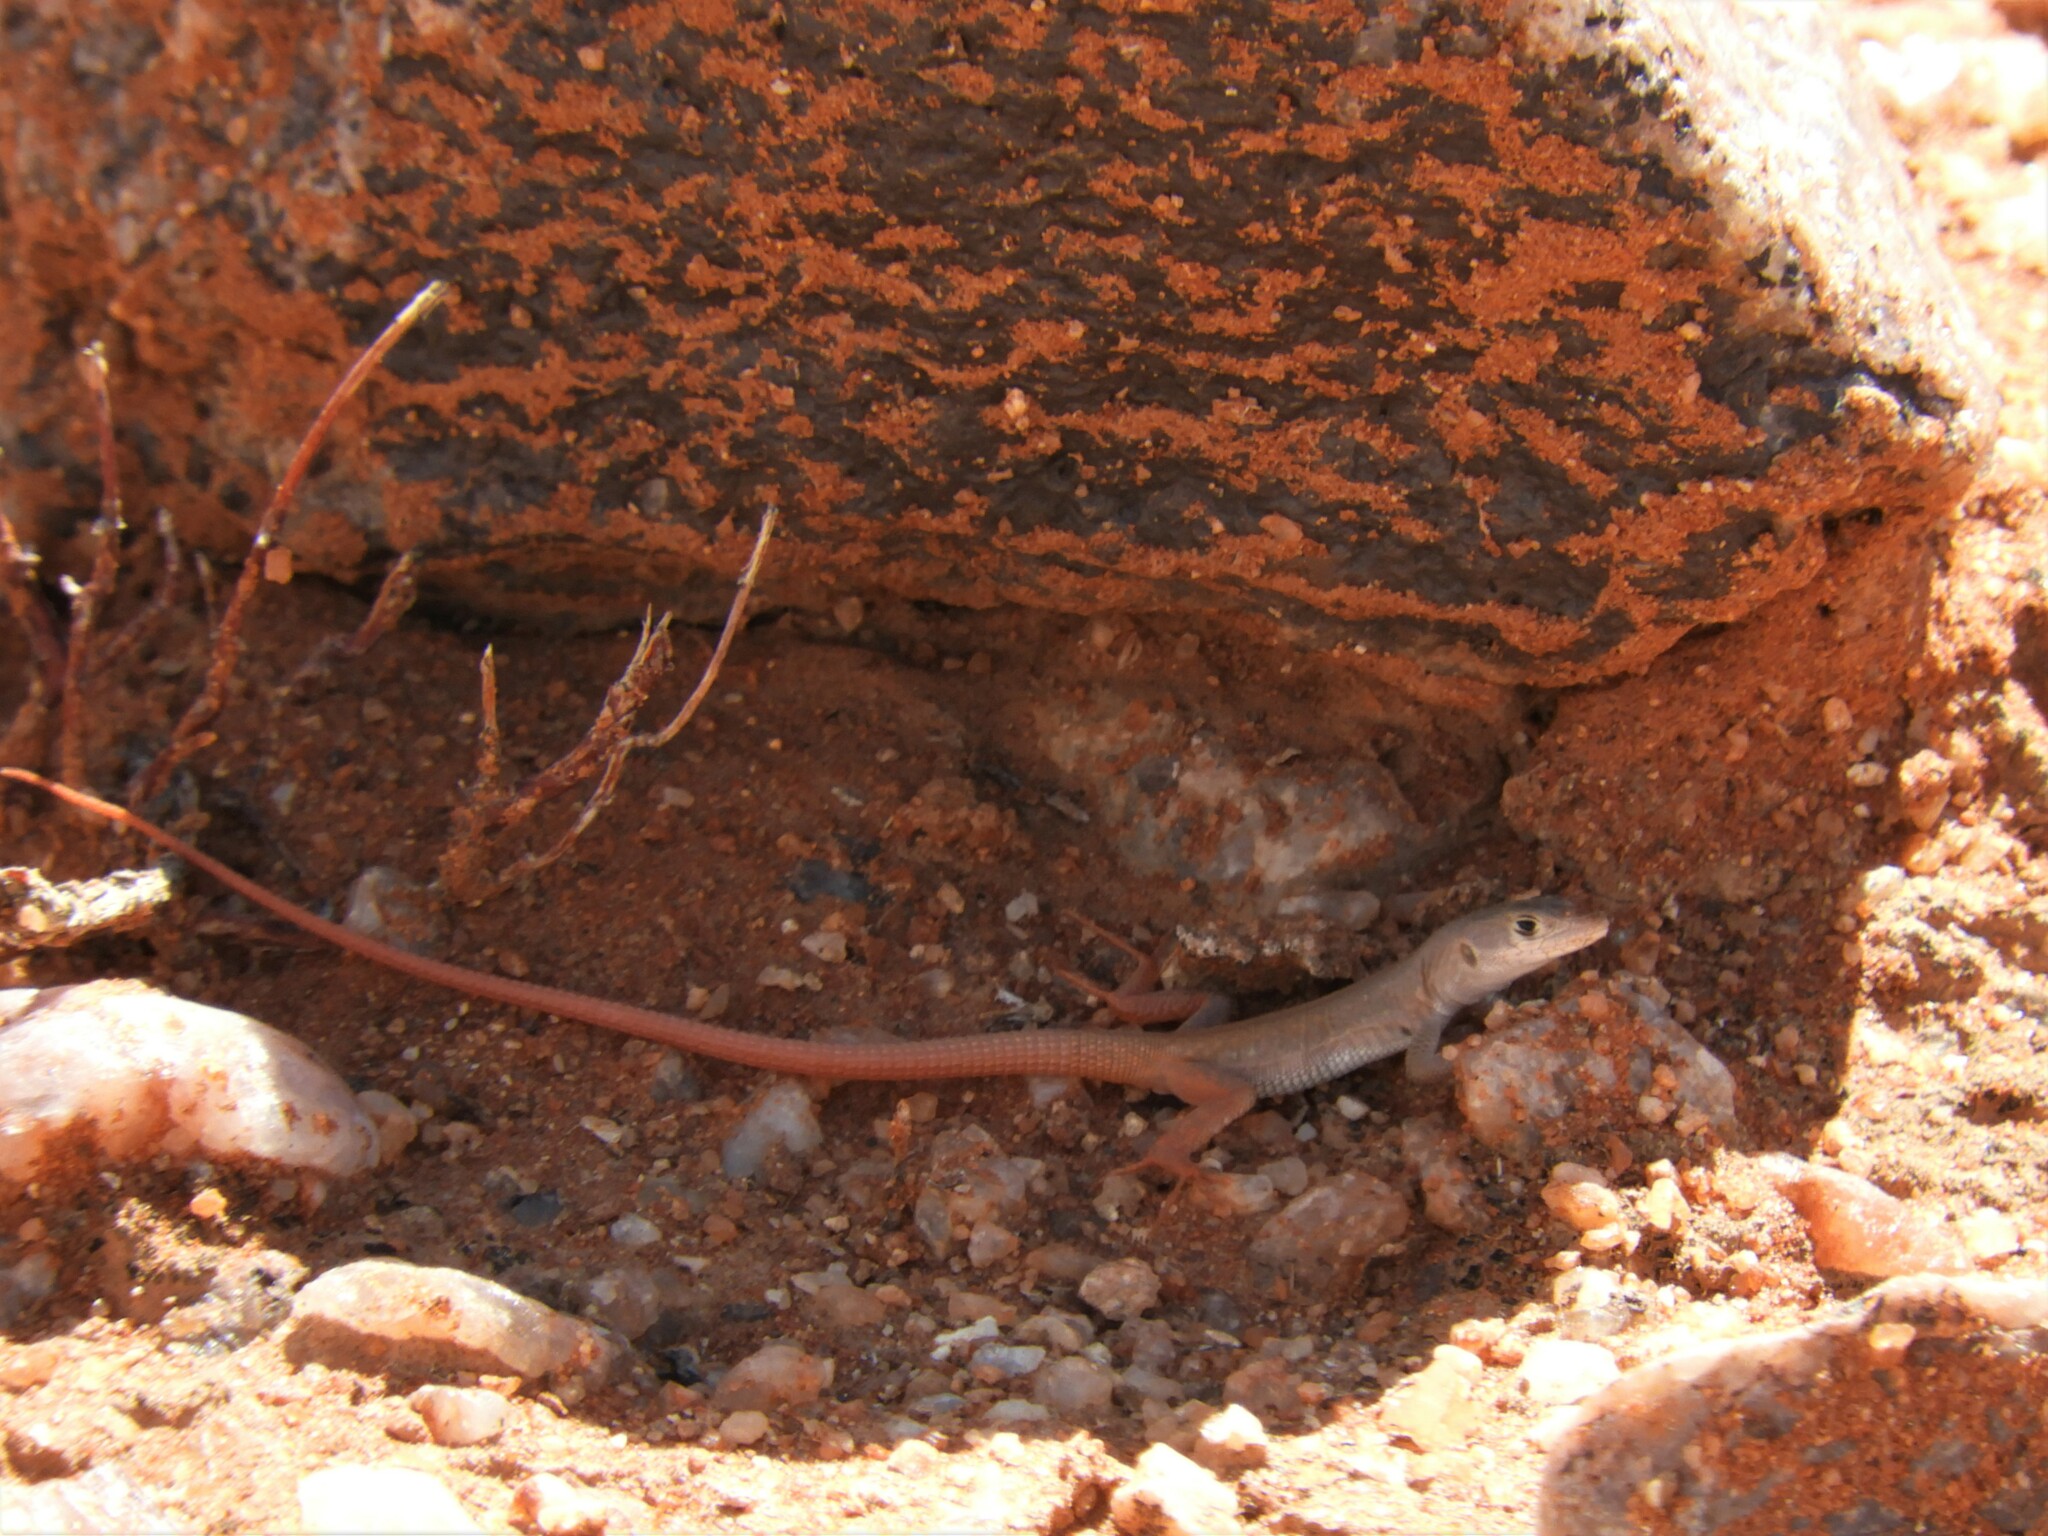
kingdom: Animalia
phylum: Chordata
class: Squamata
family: Lacertidae
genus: Pedioplanis
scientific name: Pedioplanis inornata
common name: Plain sand lizard
